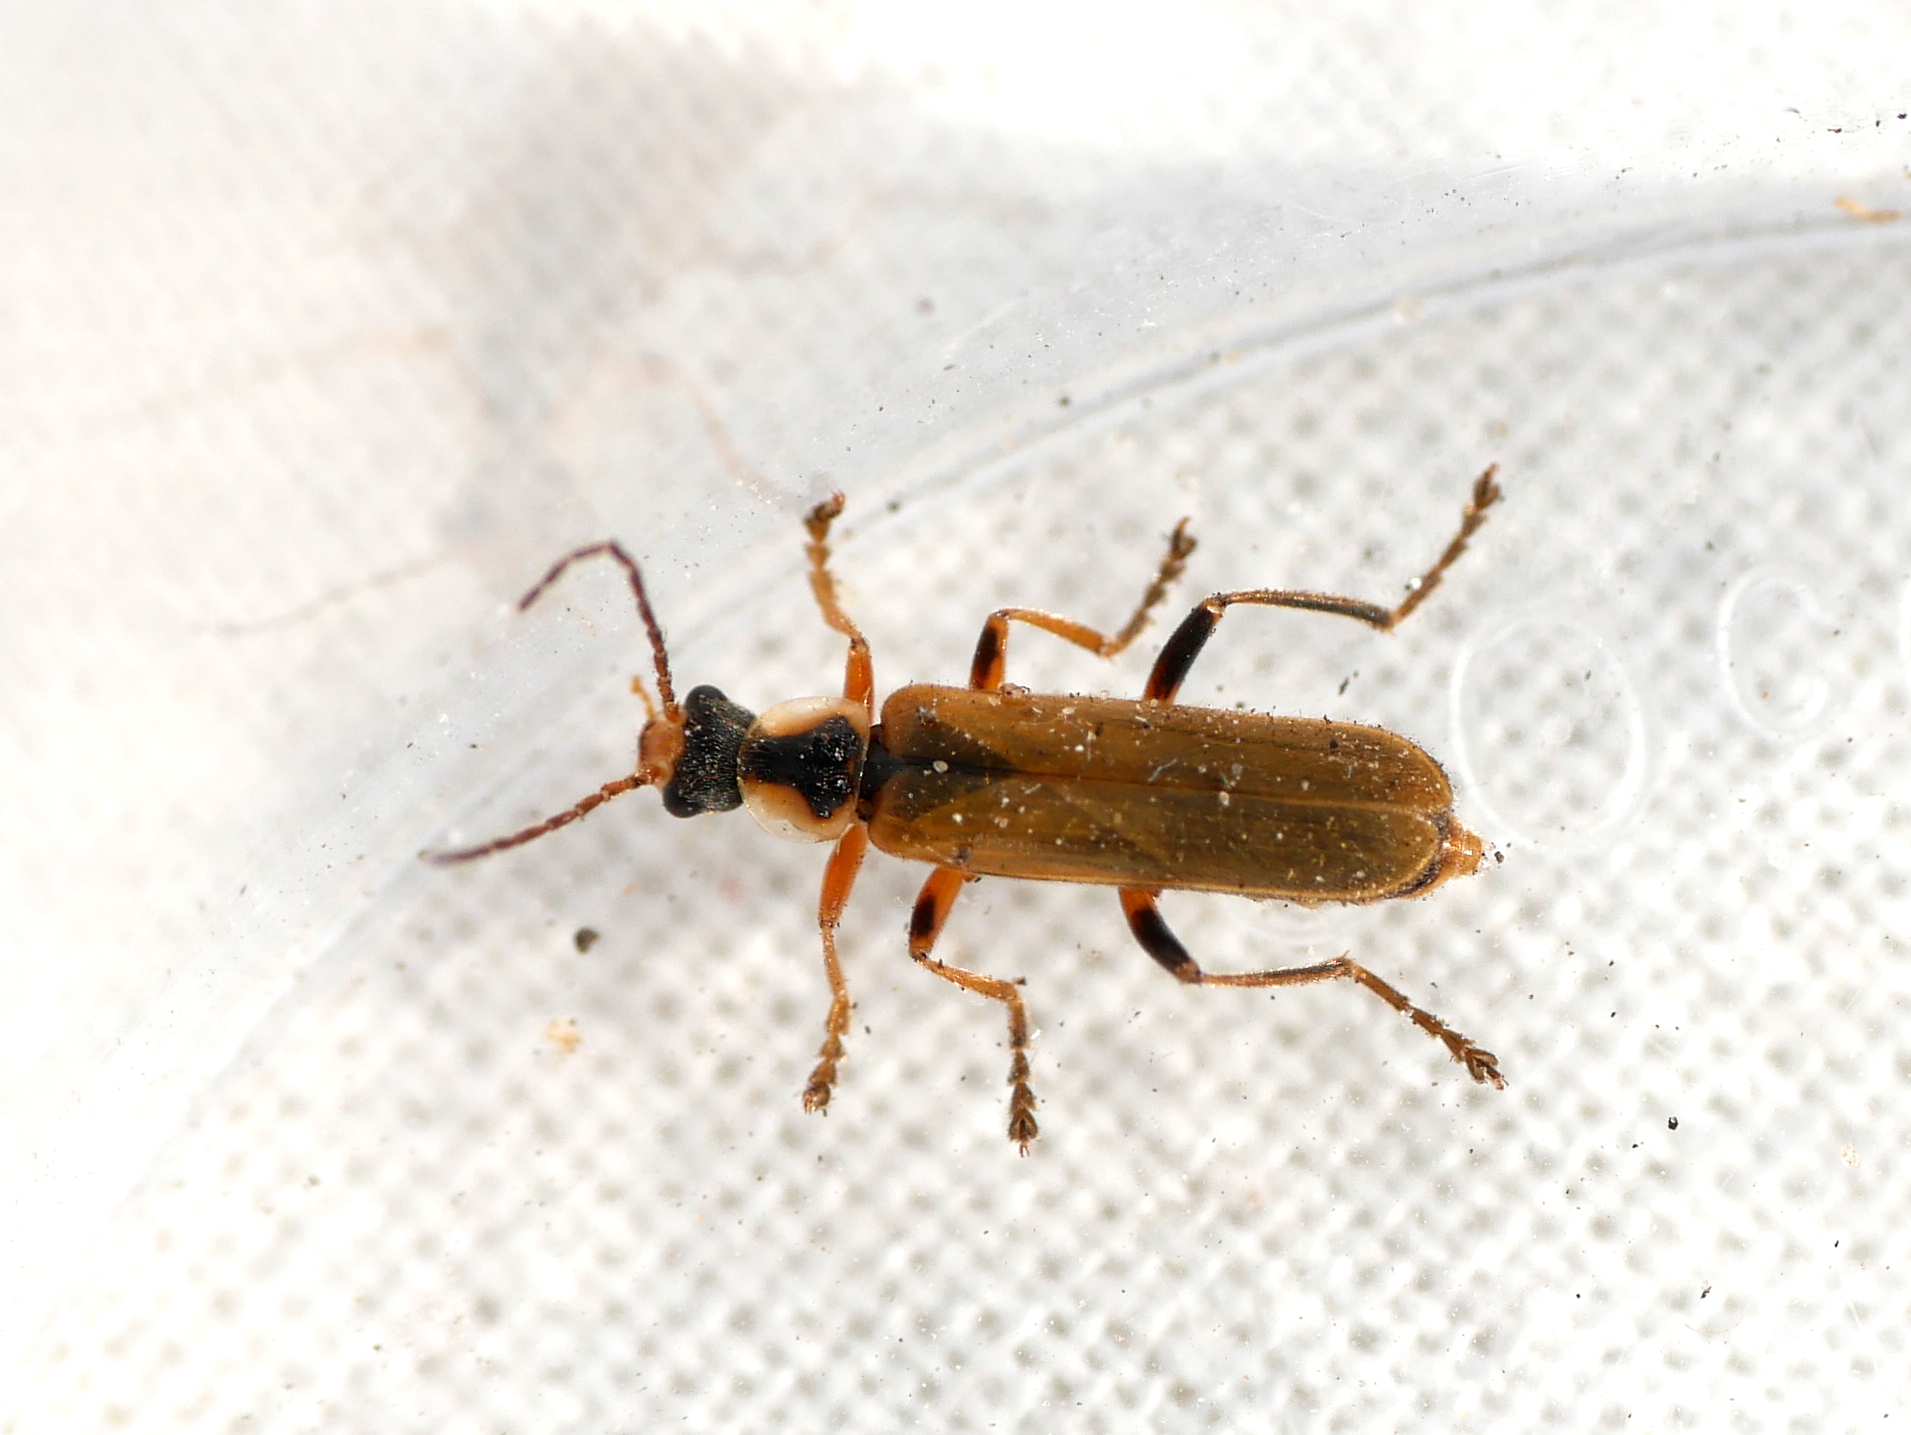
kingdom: Animalia
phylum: Arthropoda
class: Insecta
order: Coleoptera
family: Cantharidae
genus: Cantharis
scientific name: Cantharis decipiens
